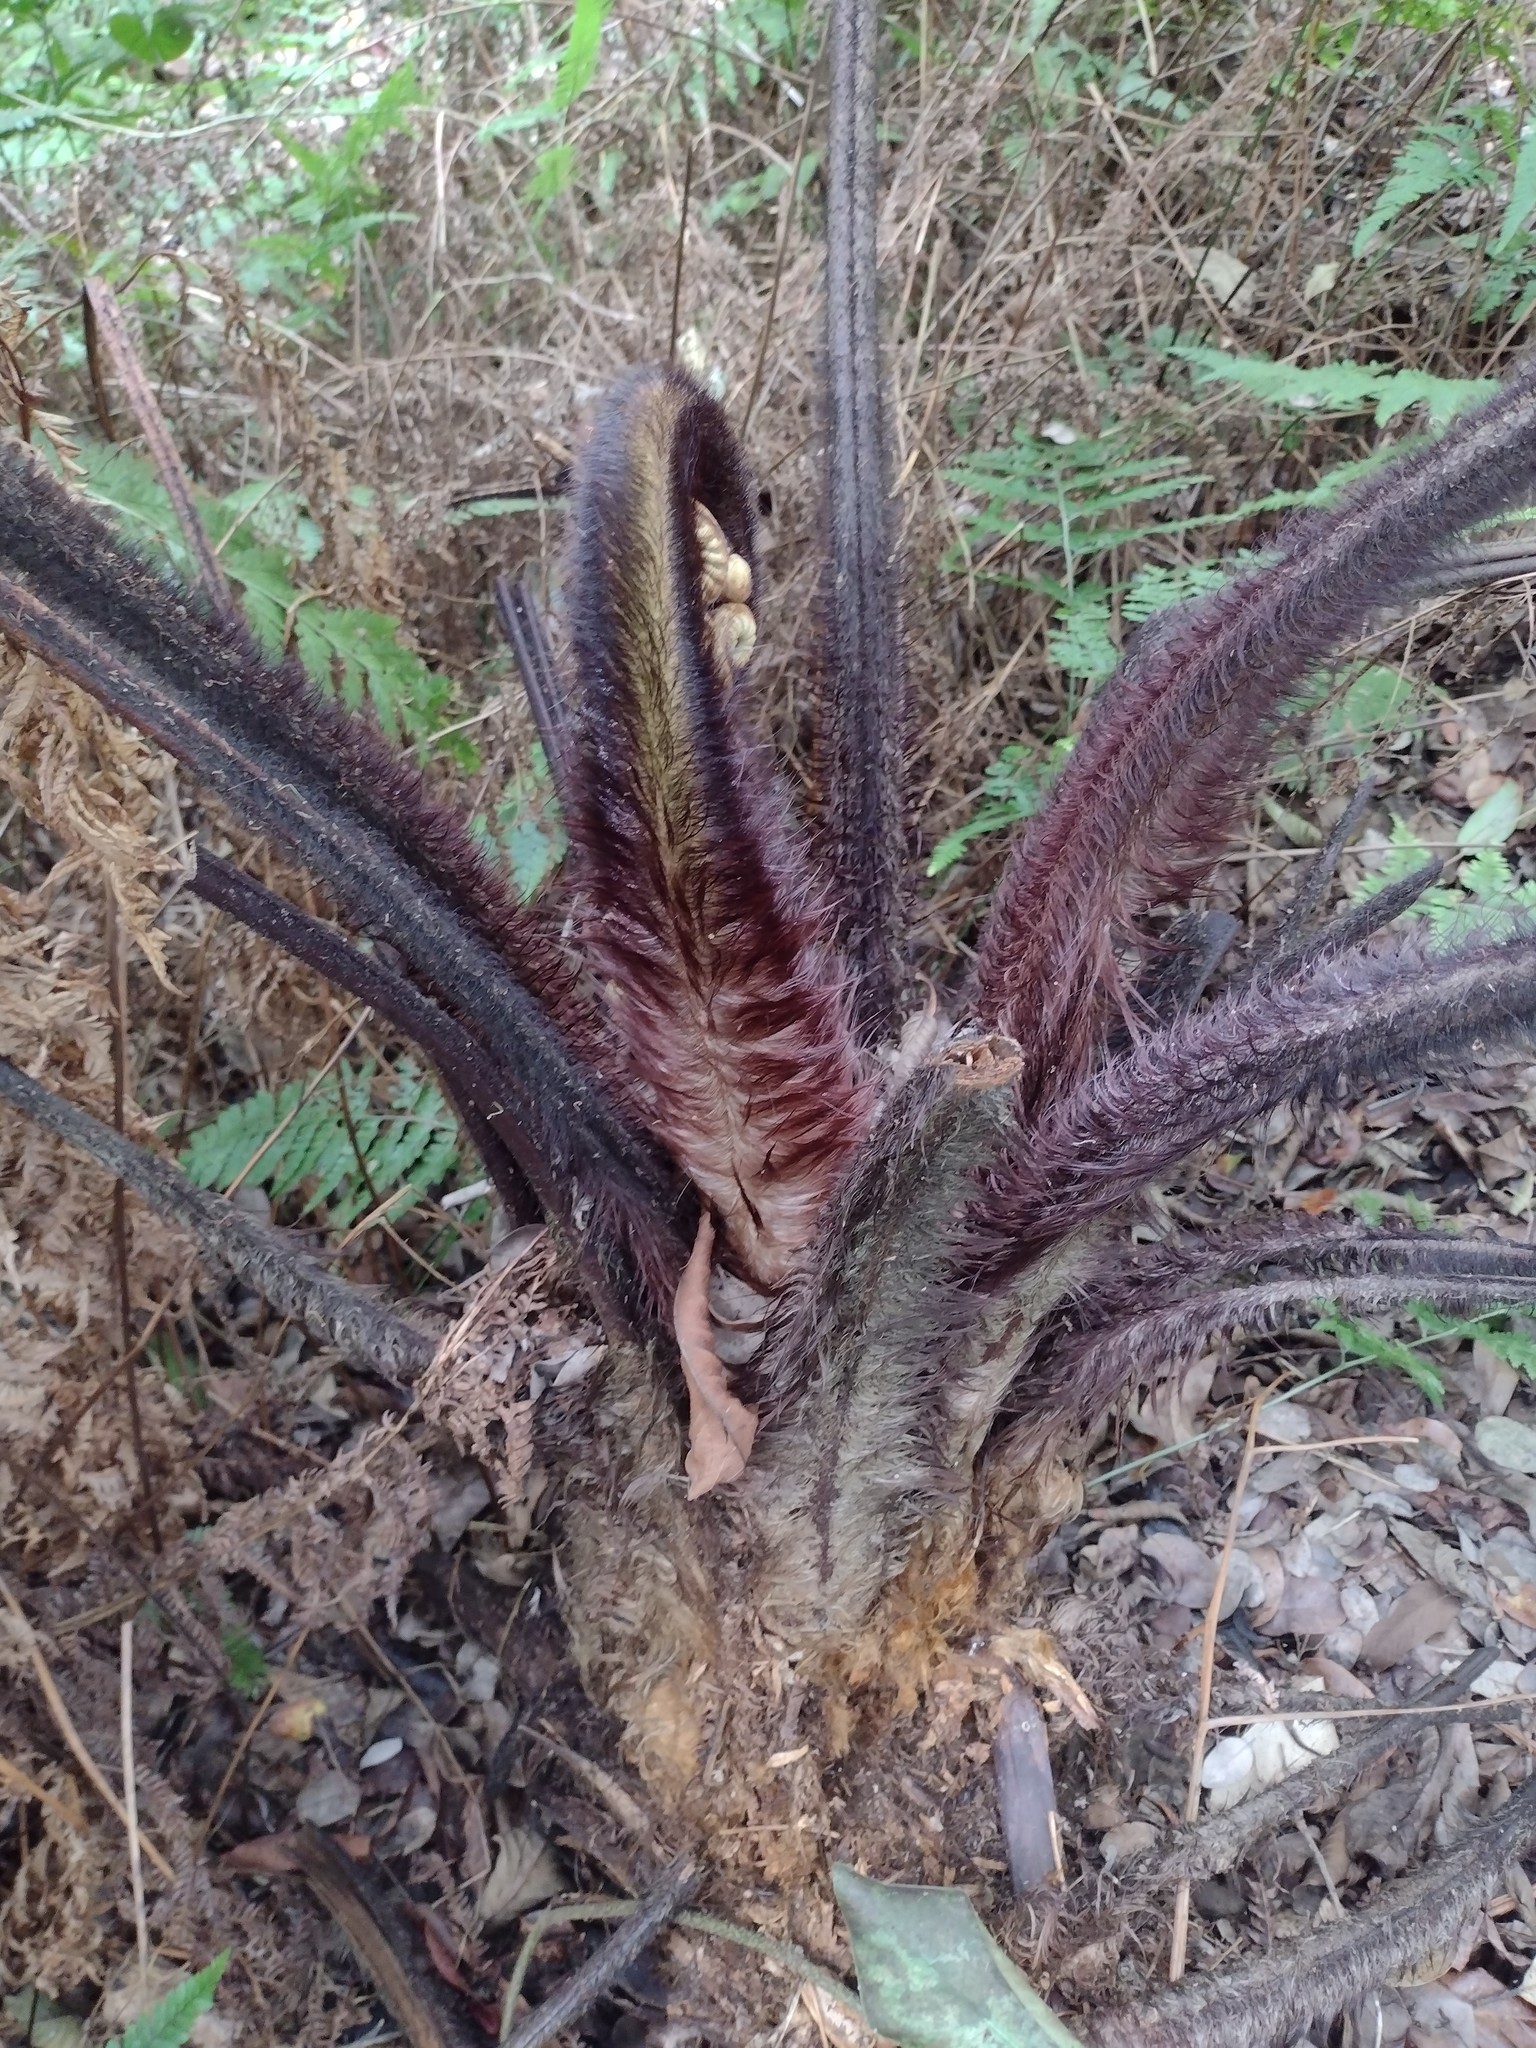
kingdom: Plantae
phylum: Tracheophyta
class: Polypodiopsida
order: Cyatheales
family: Cibotiaceae
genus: Cibotium
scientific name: Cibotium menziesii
